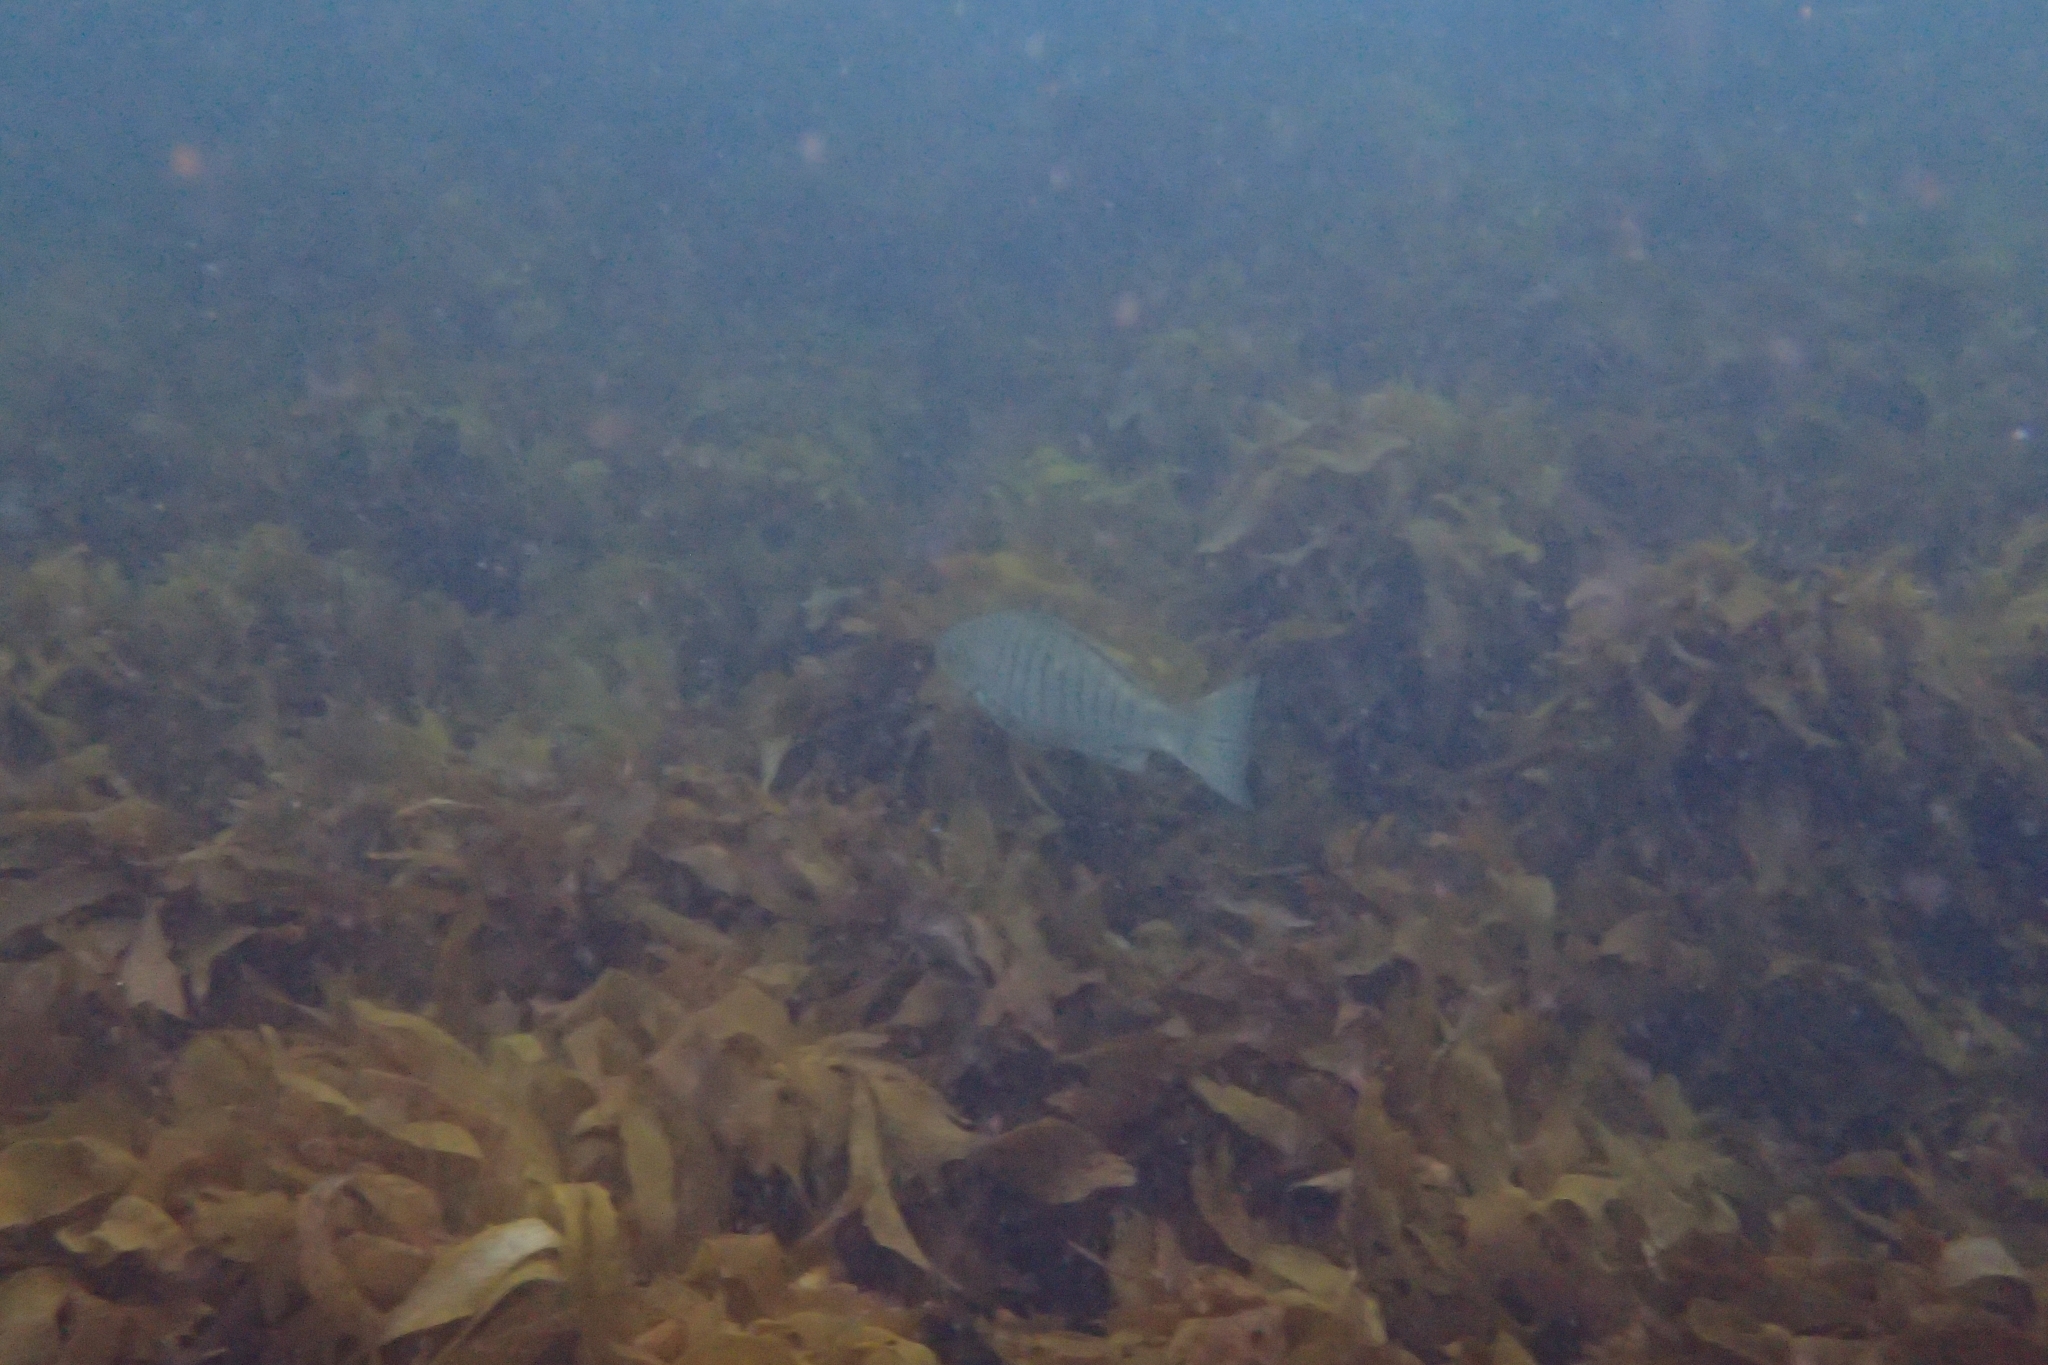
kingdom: Animalia
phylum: Chordata
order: Perciformes
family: Kyphosidae
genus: Girella
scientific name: Girella tricuspidata
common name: Parore
